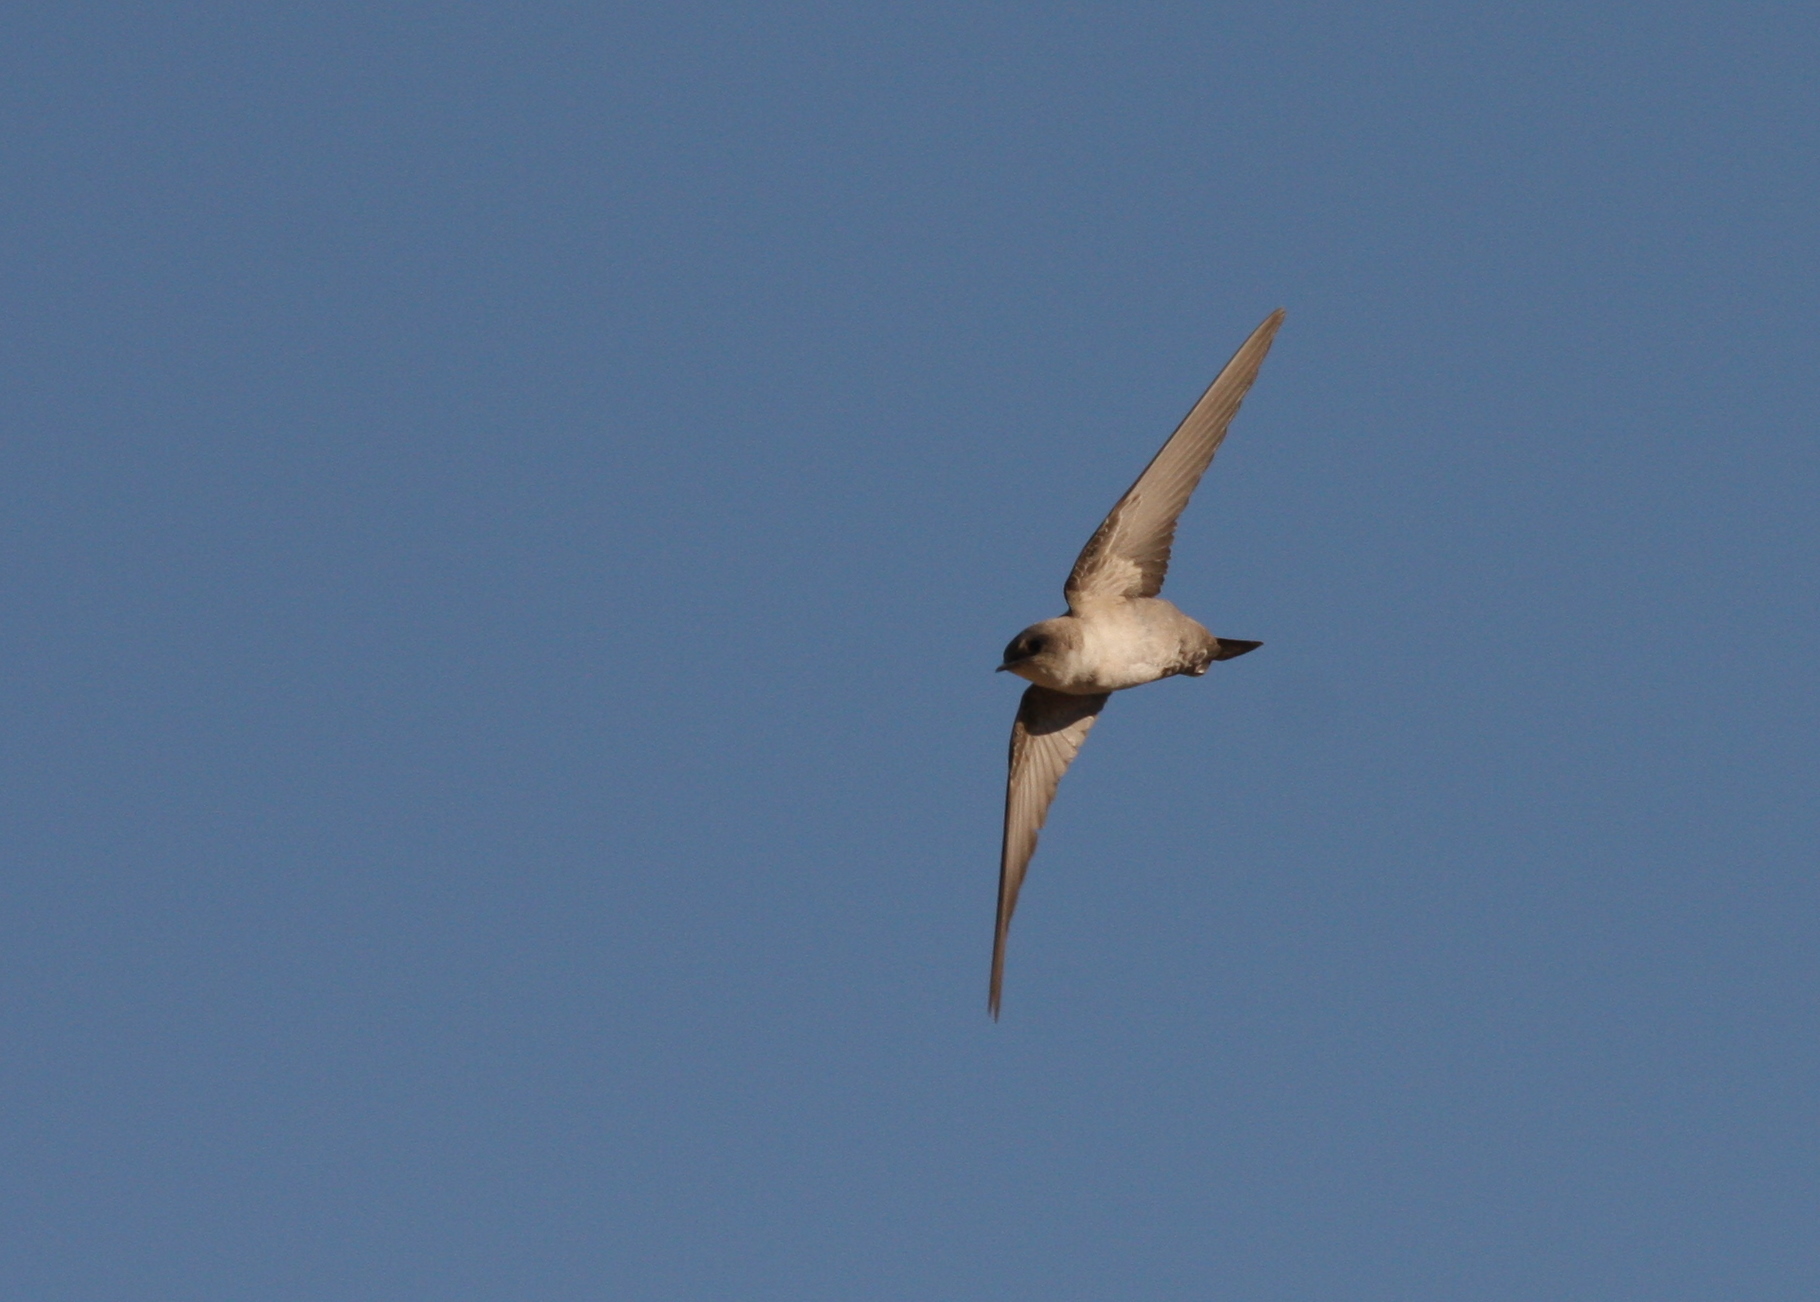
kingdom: Animalia
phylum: Chordata
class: Aves
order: Passeriformes
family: Hirundinidae
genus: Ptyonoprogne
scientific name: Ptyonoprogne fuligula
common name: Rock martin
